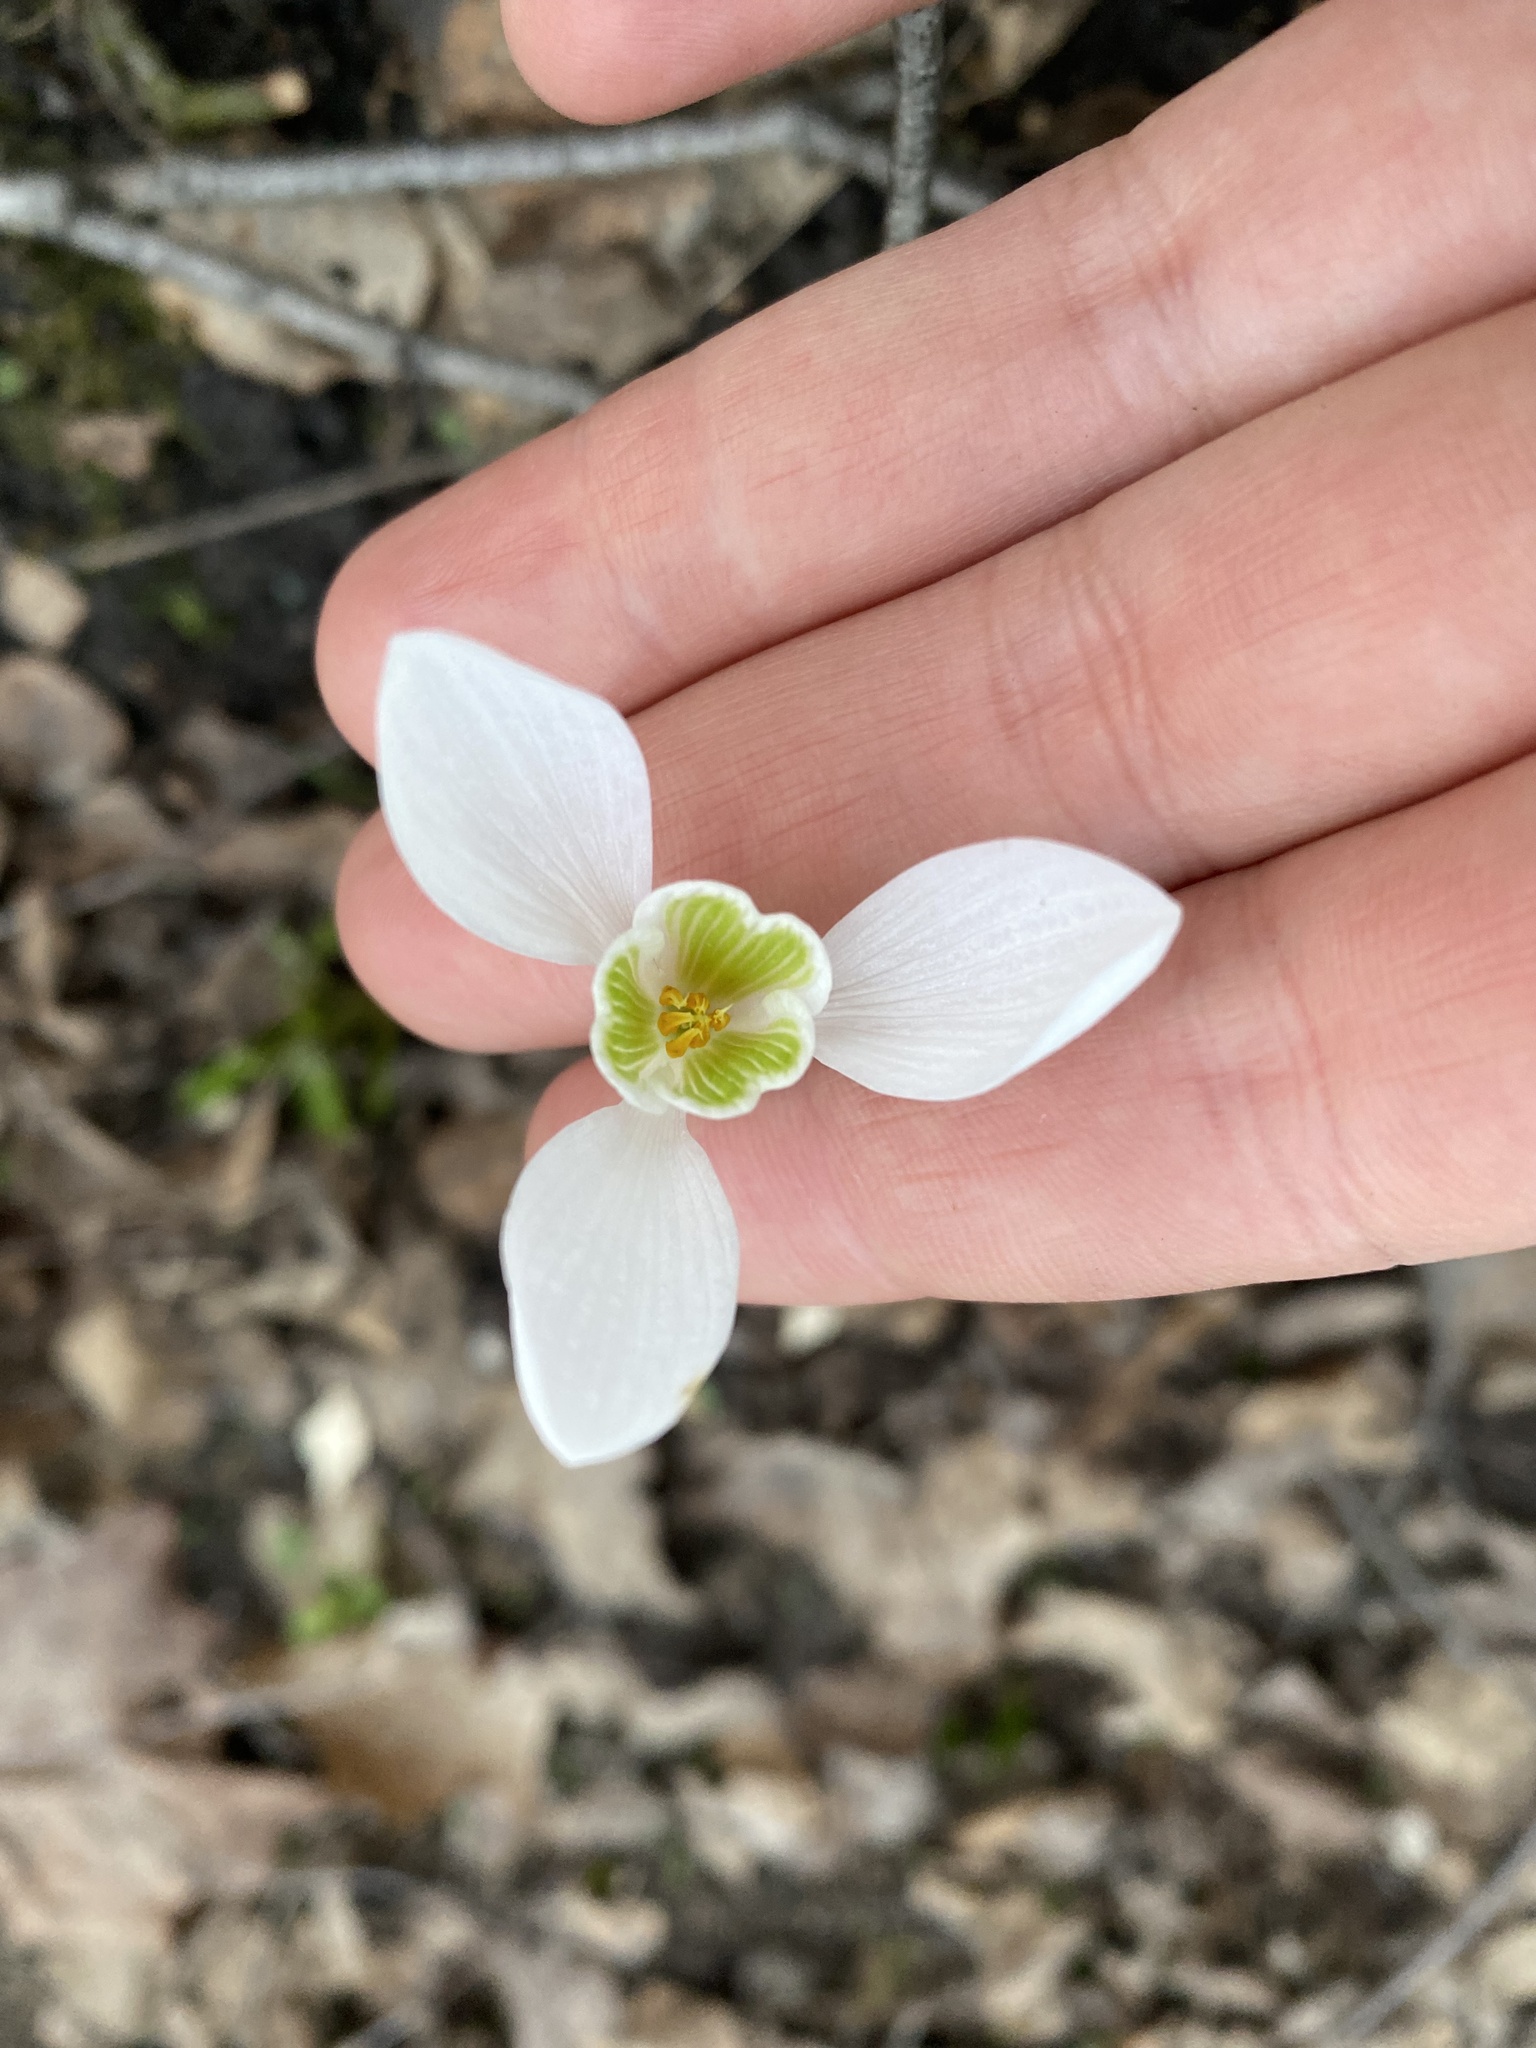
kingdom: Plantae
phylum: Tracheophyta
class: Liliopsida
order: Asparagales
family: Amaryllidaceae
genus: Galanthus
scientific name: Galanthus nivalis
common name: Snowdrop
